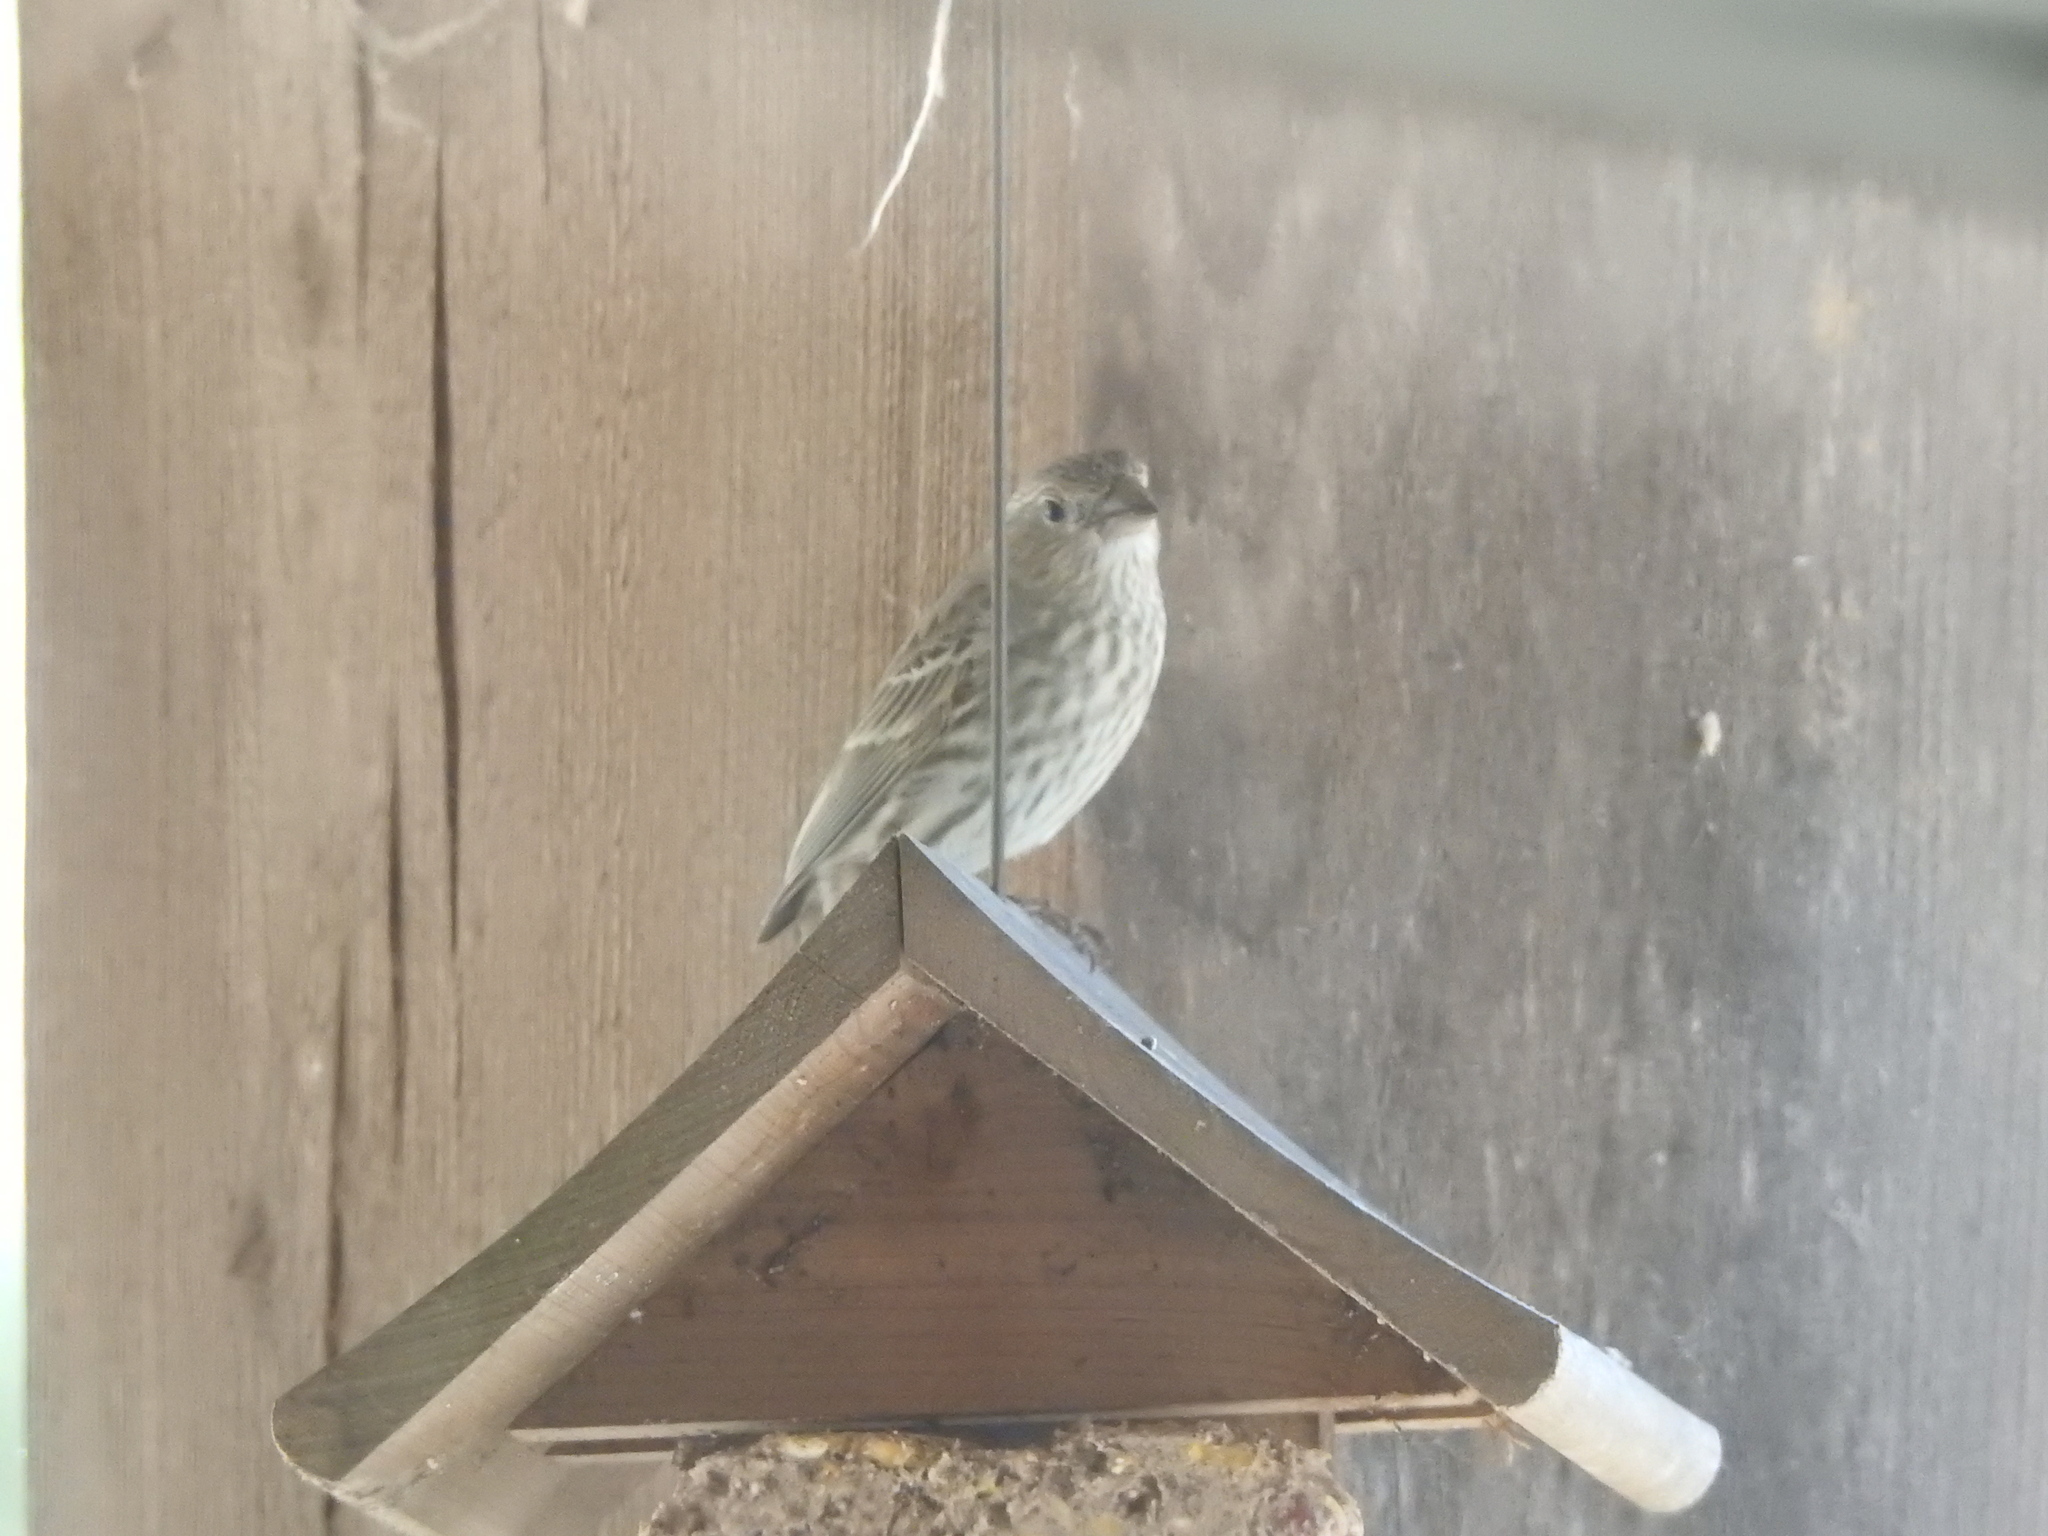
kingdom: Animalia
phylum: Chordata
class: Aves
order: Passeriformes
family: Fringillidae
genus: Haemorhous
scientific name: Haemorhous mexicanus
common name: House finch
